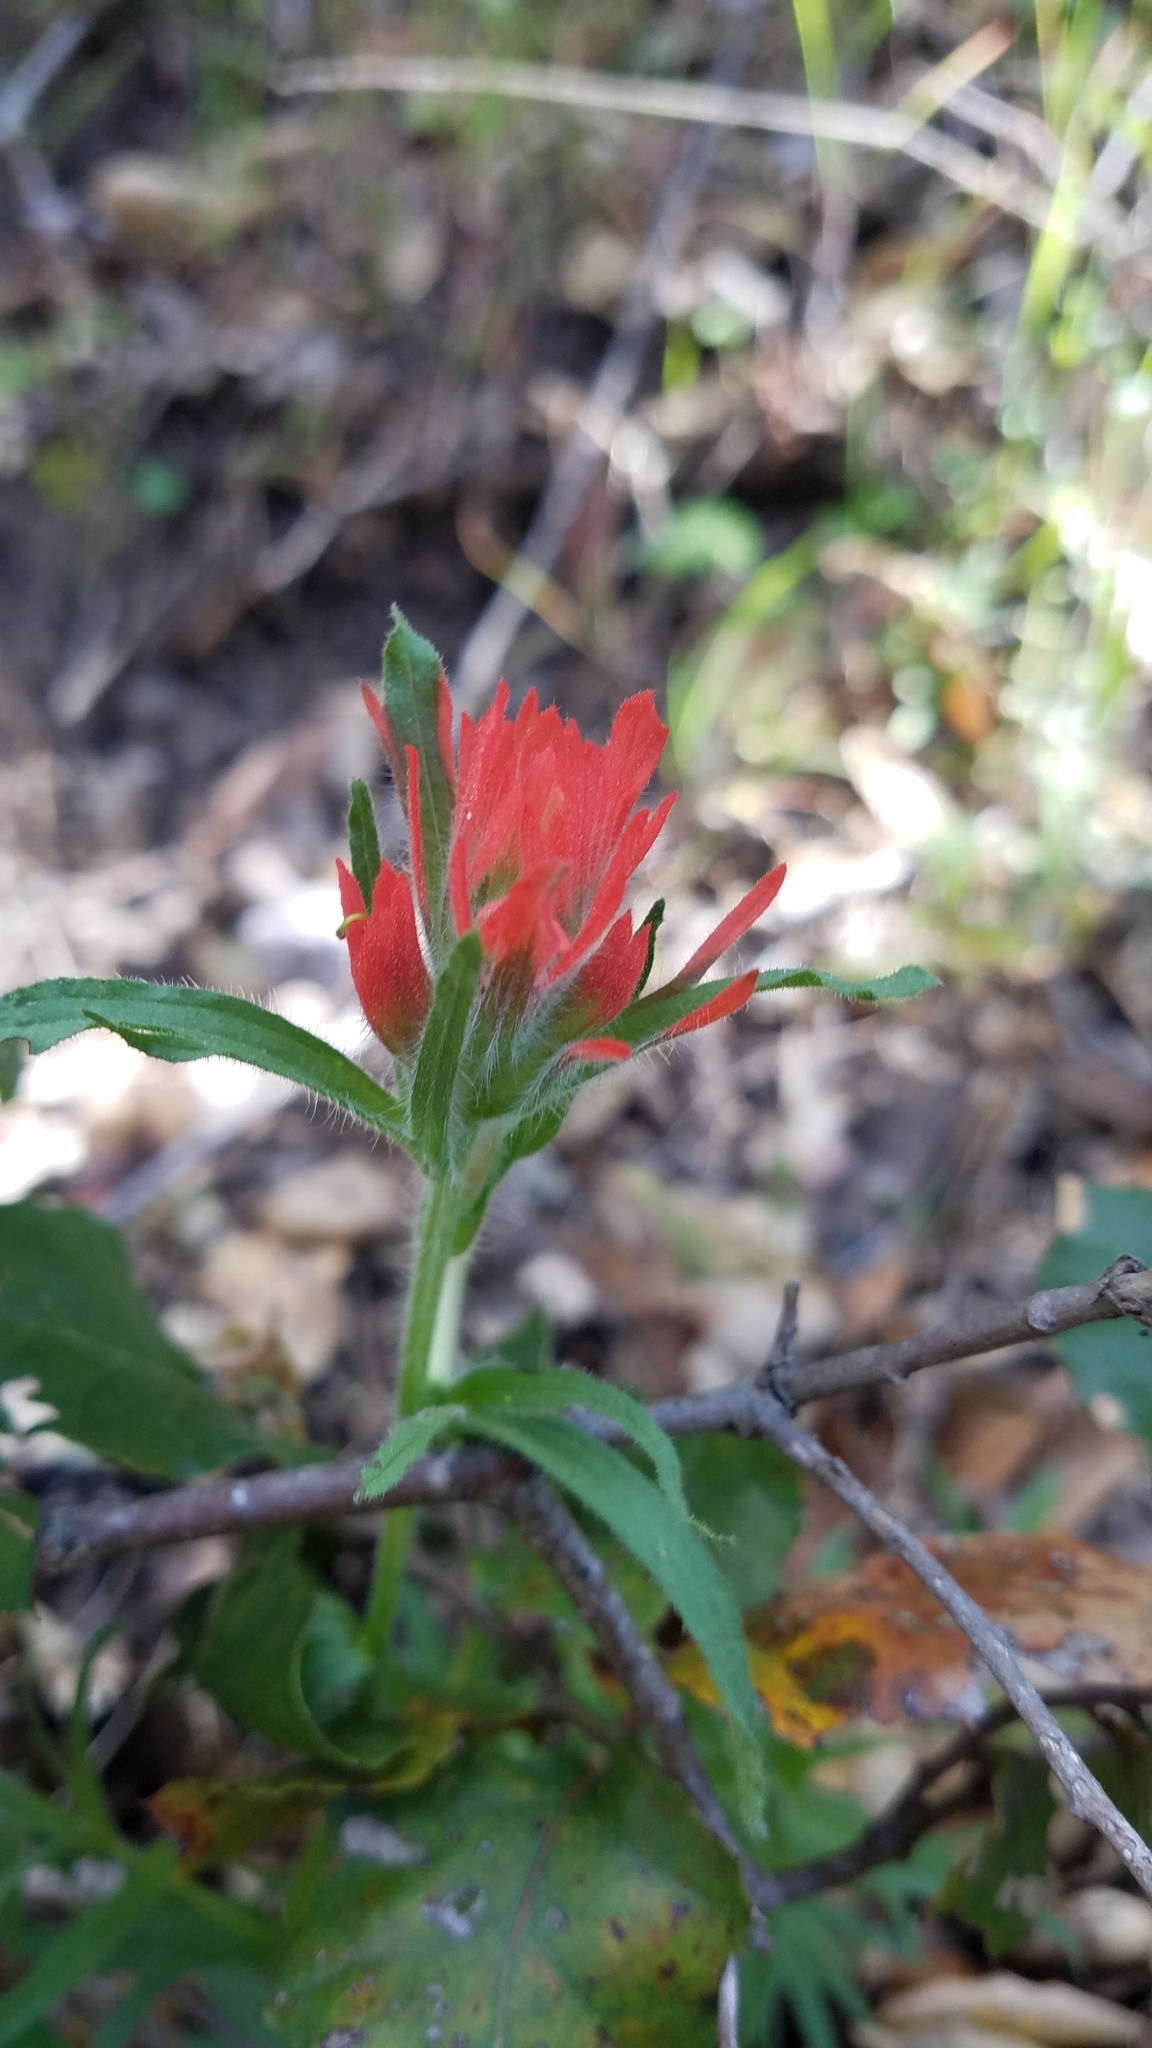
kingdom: Plantae
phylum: Tracheophyta
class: Magnoliopsida
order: Lamiales
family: Orobanchaceae
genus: Castilleja
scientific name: Castilleja affinis
